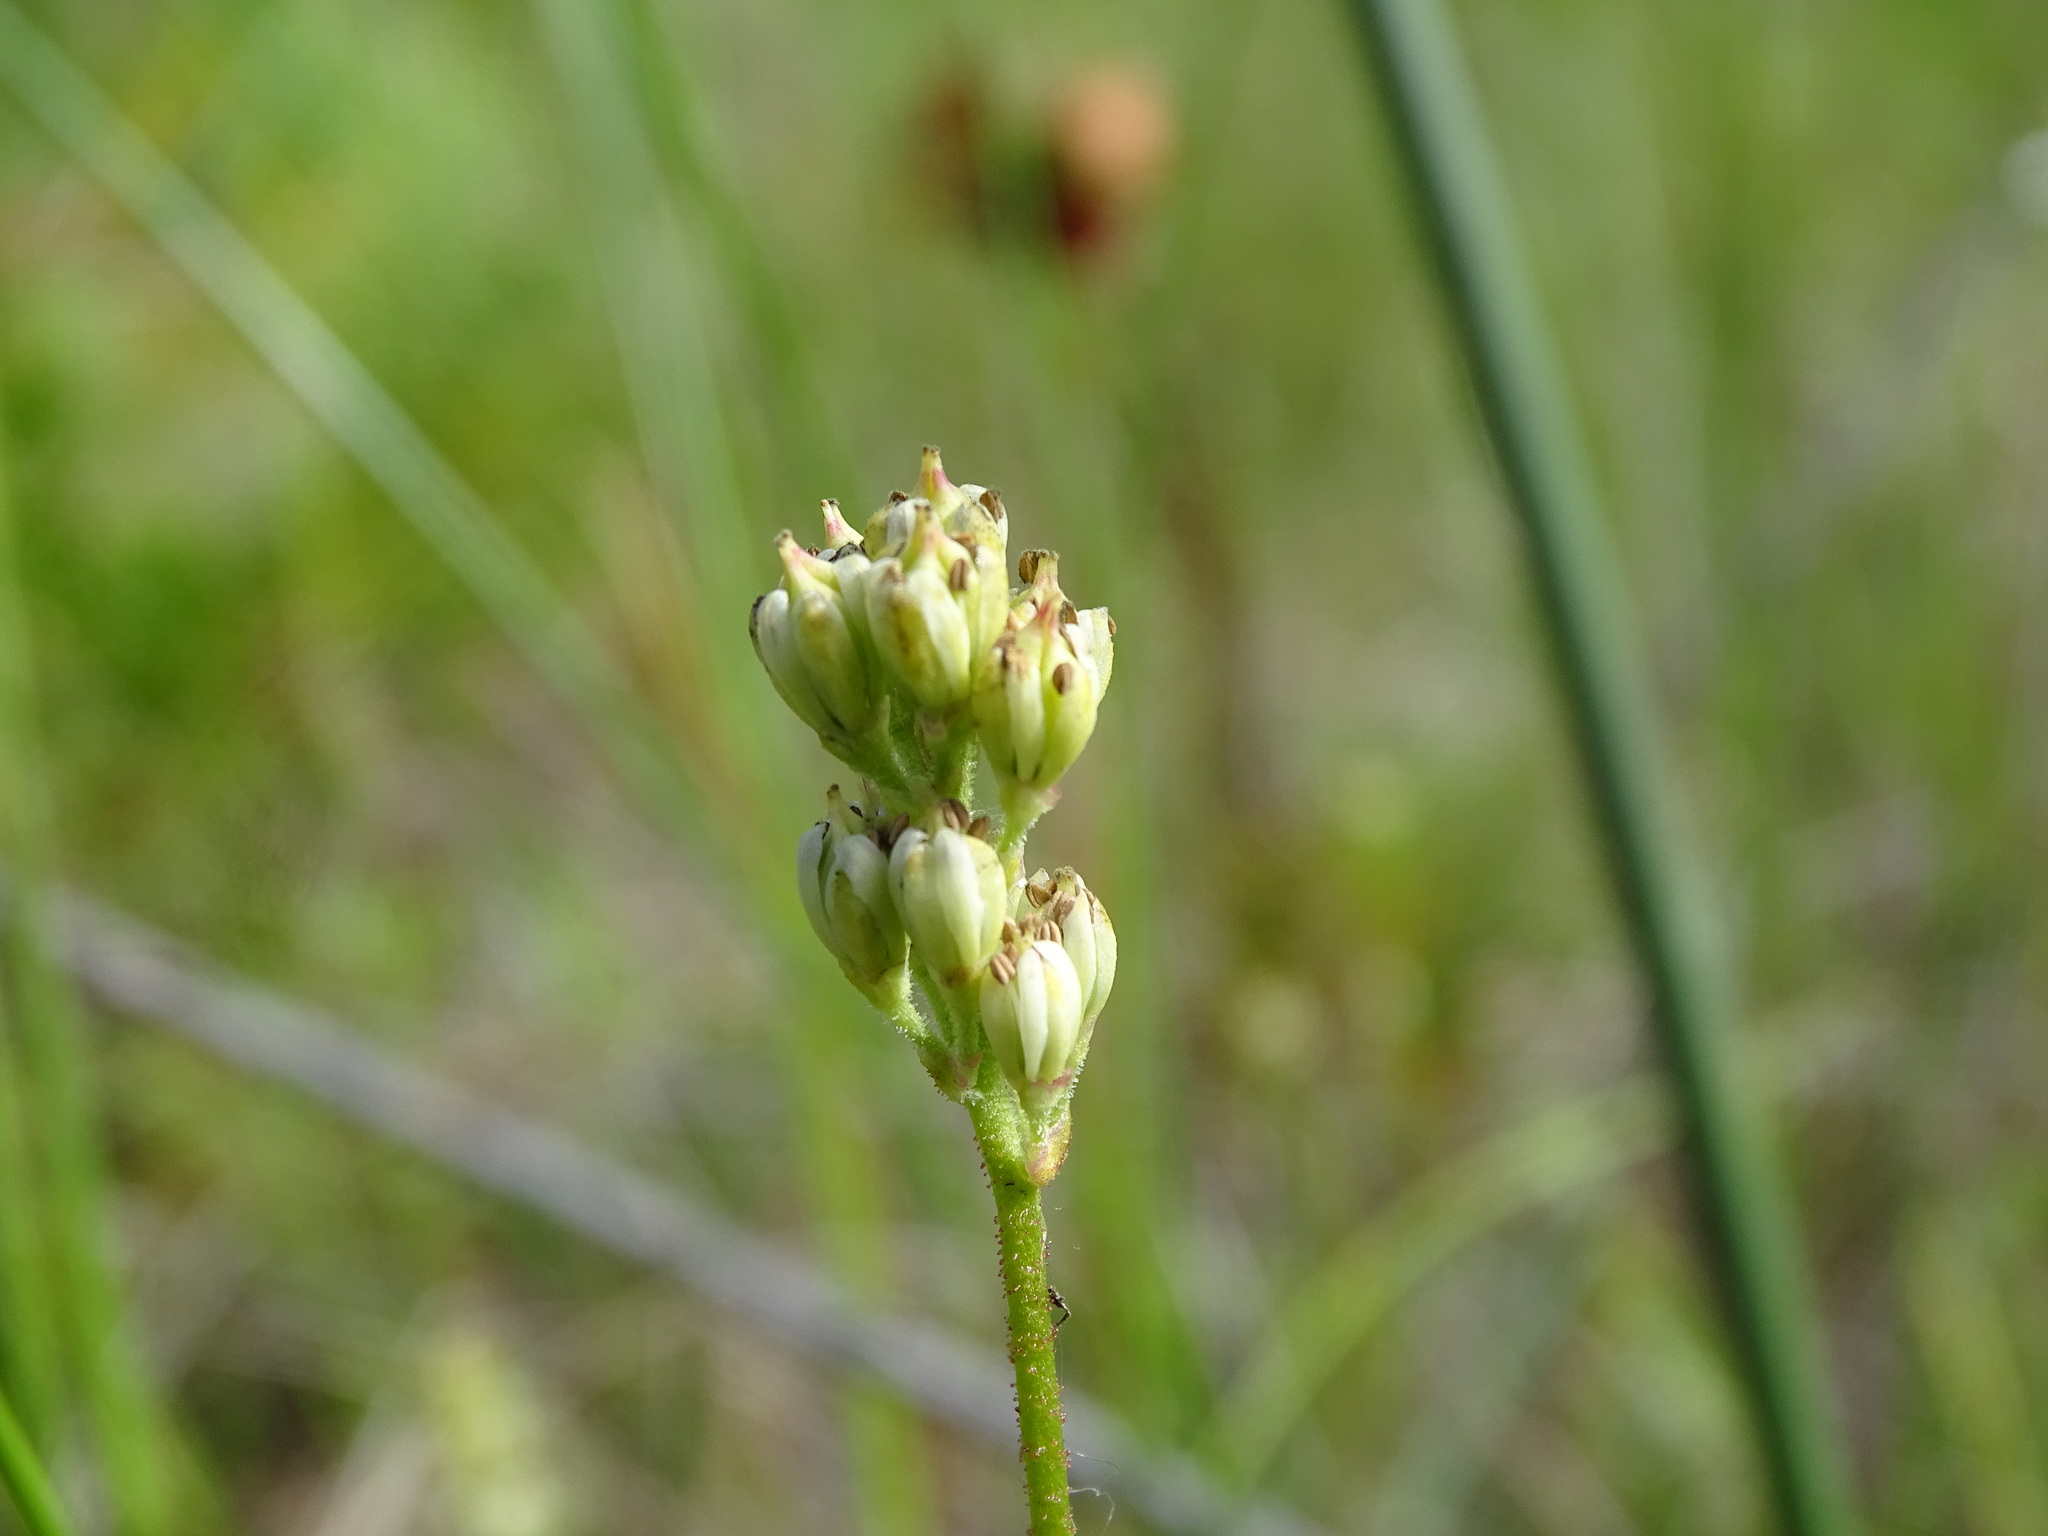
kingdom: Plantae
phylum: Tracheophyta
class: Liliopsida
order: Alismatales
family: Tofieldiaceae
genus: Triantha
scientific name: Triantha glutinosa
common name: Glutinous tofieldia
